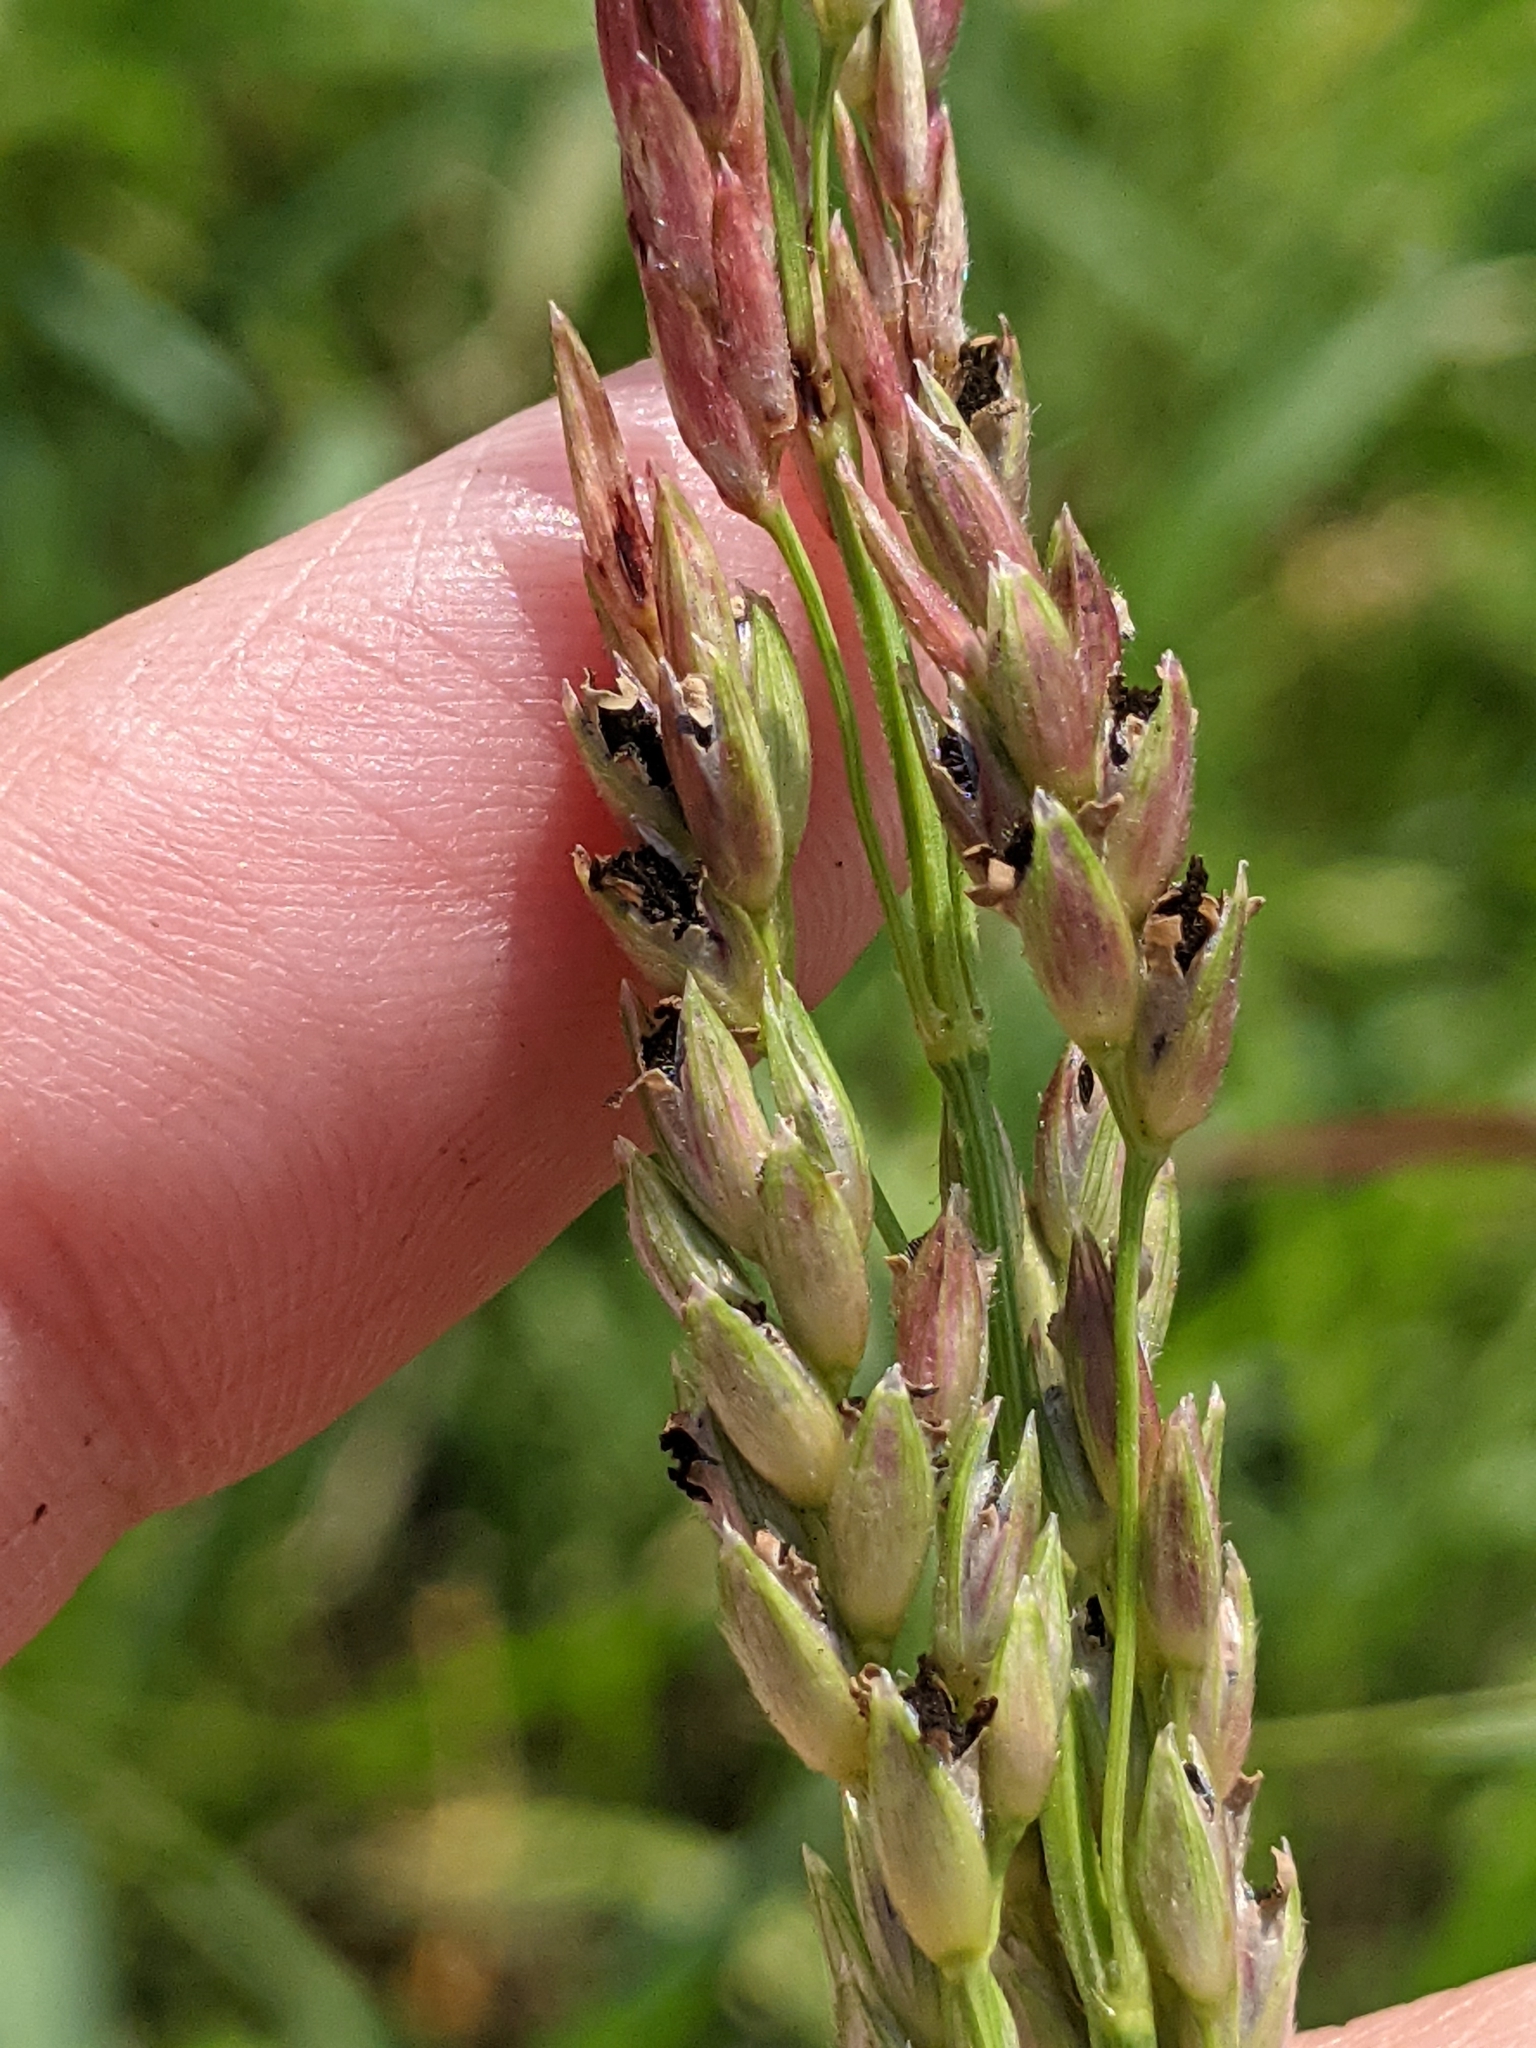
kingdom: Plantae
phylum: Tracheophyta
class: Liliopsida
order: Poales
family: Poaceae
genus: Sorghum
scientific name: Sorghum halepense
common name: Johnson-grass
